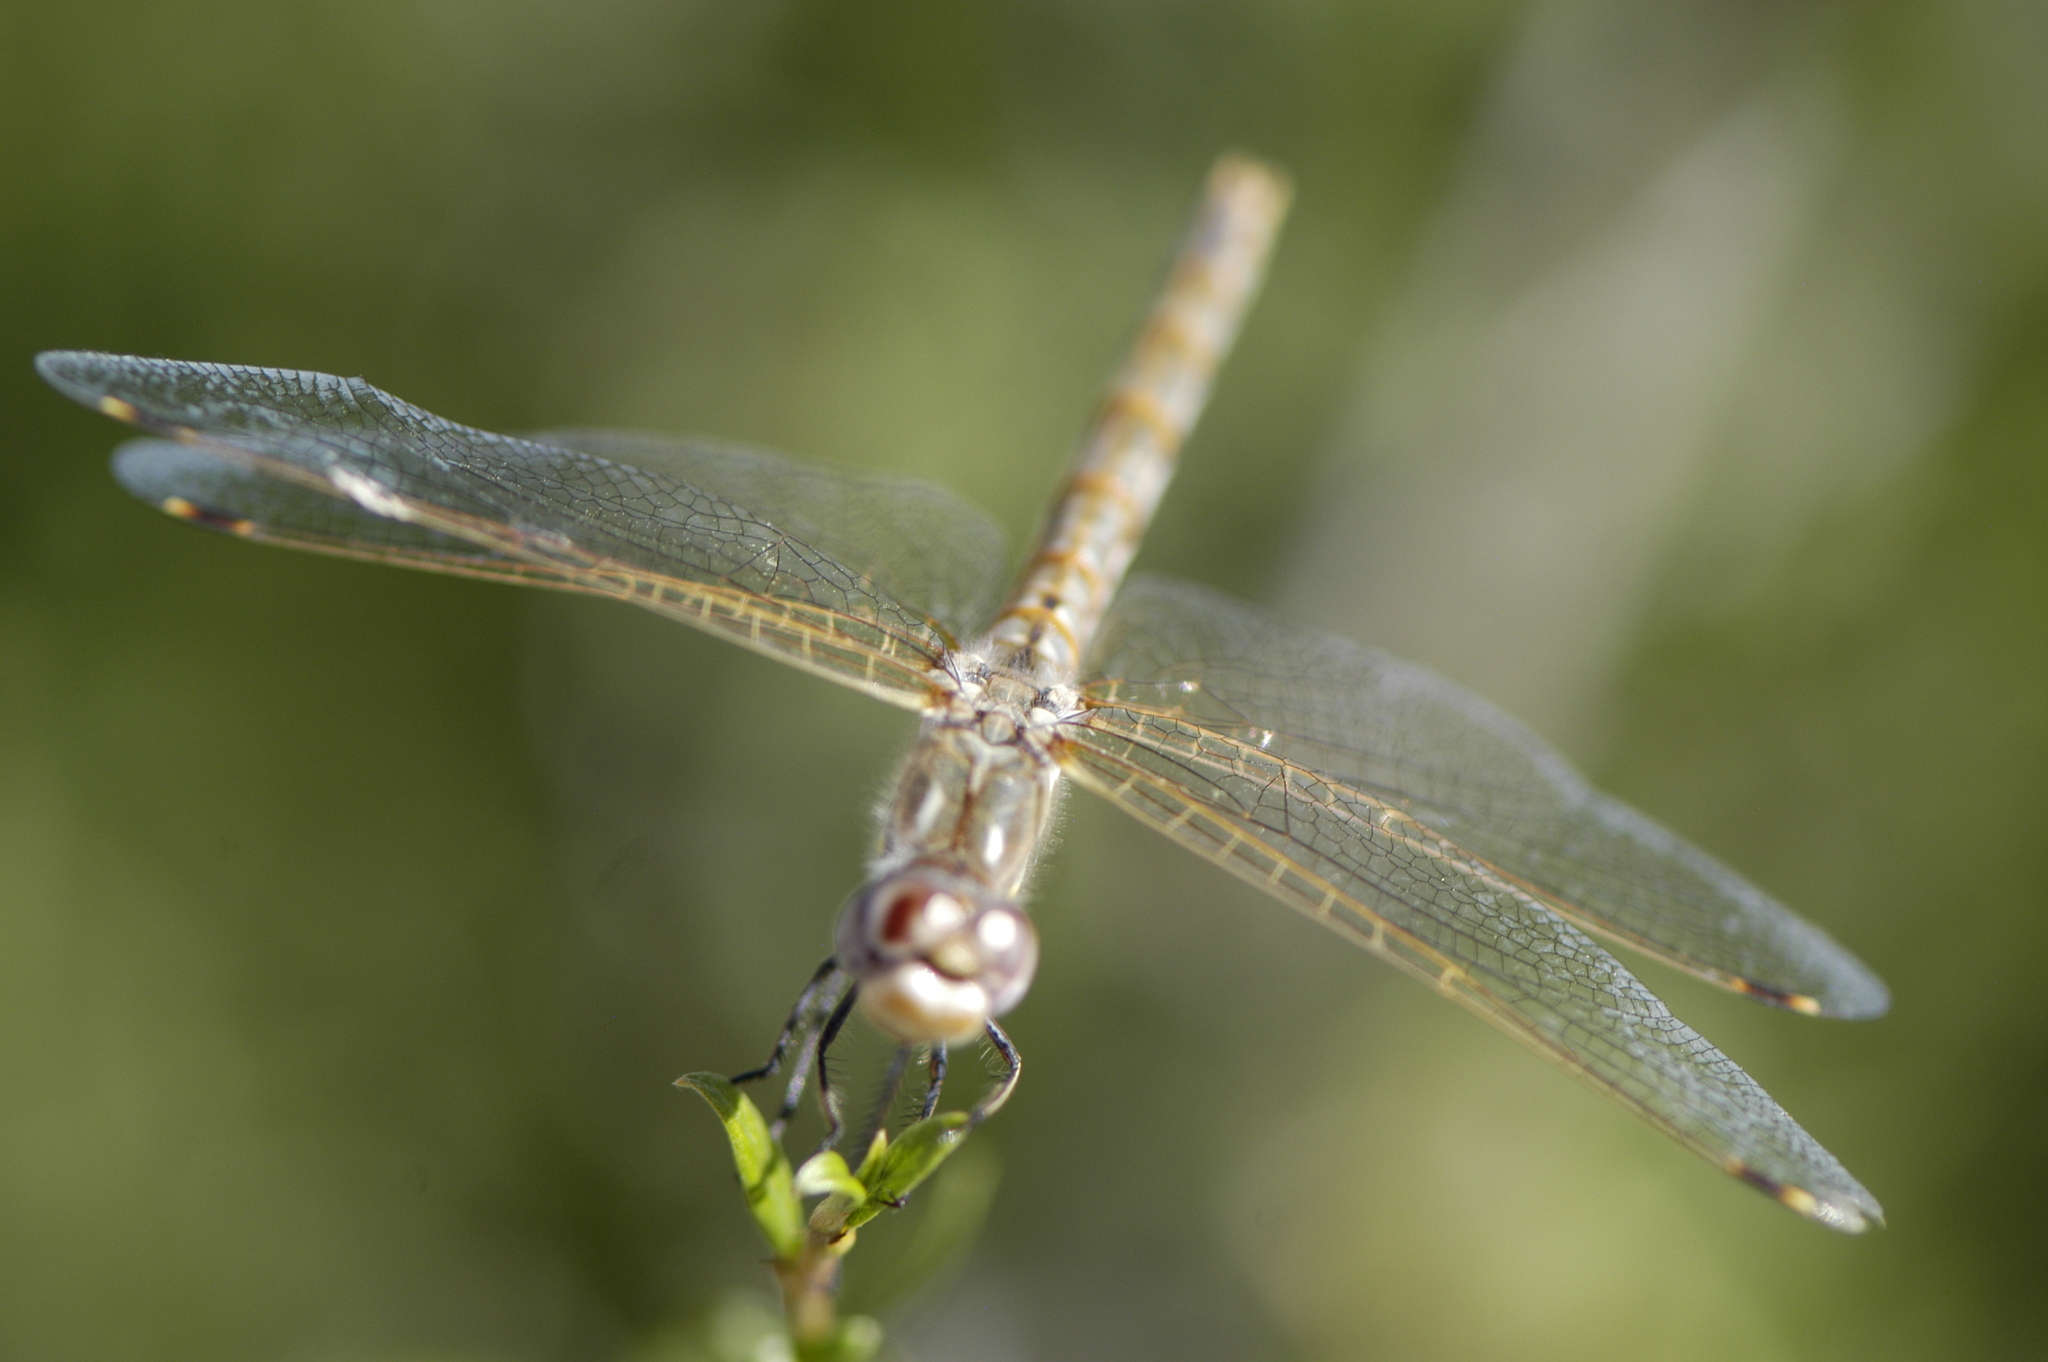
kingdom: Animalia
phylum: Arthropoda
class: Insecta
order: Odonata
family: Libellulidae
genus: Sympetrum
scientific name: Sympetrum corruptum
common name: Variegated meadowhawk
